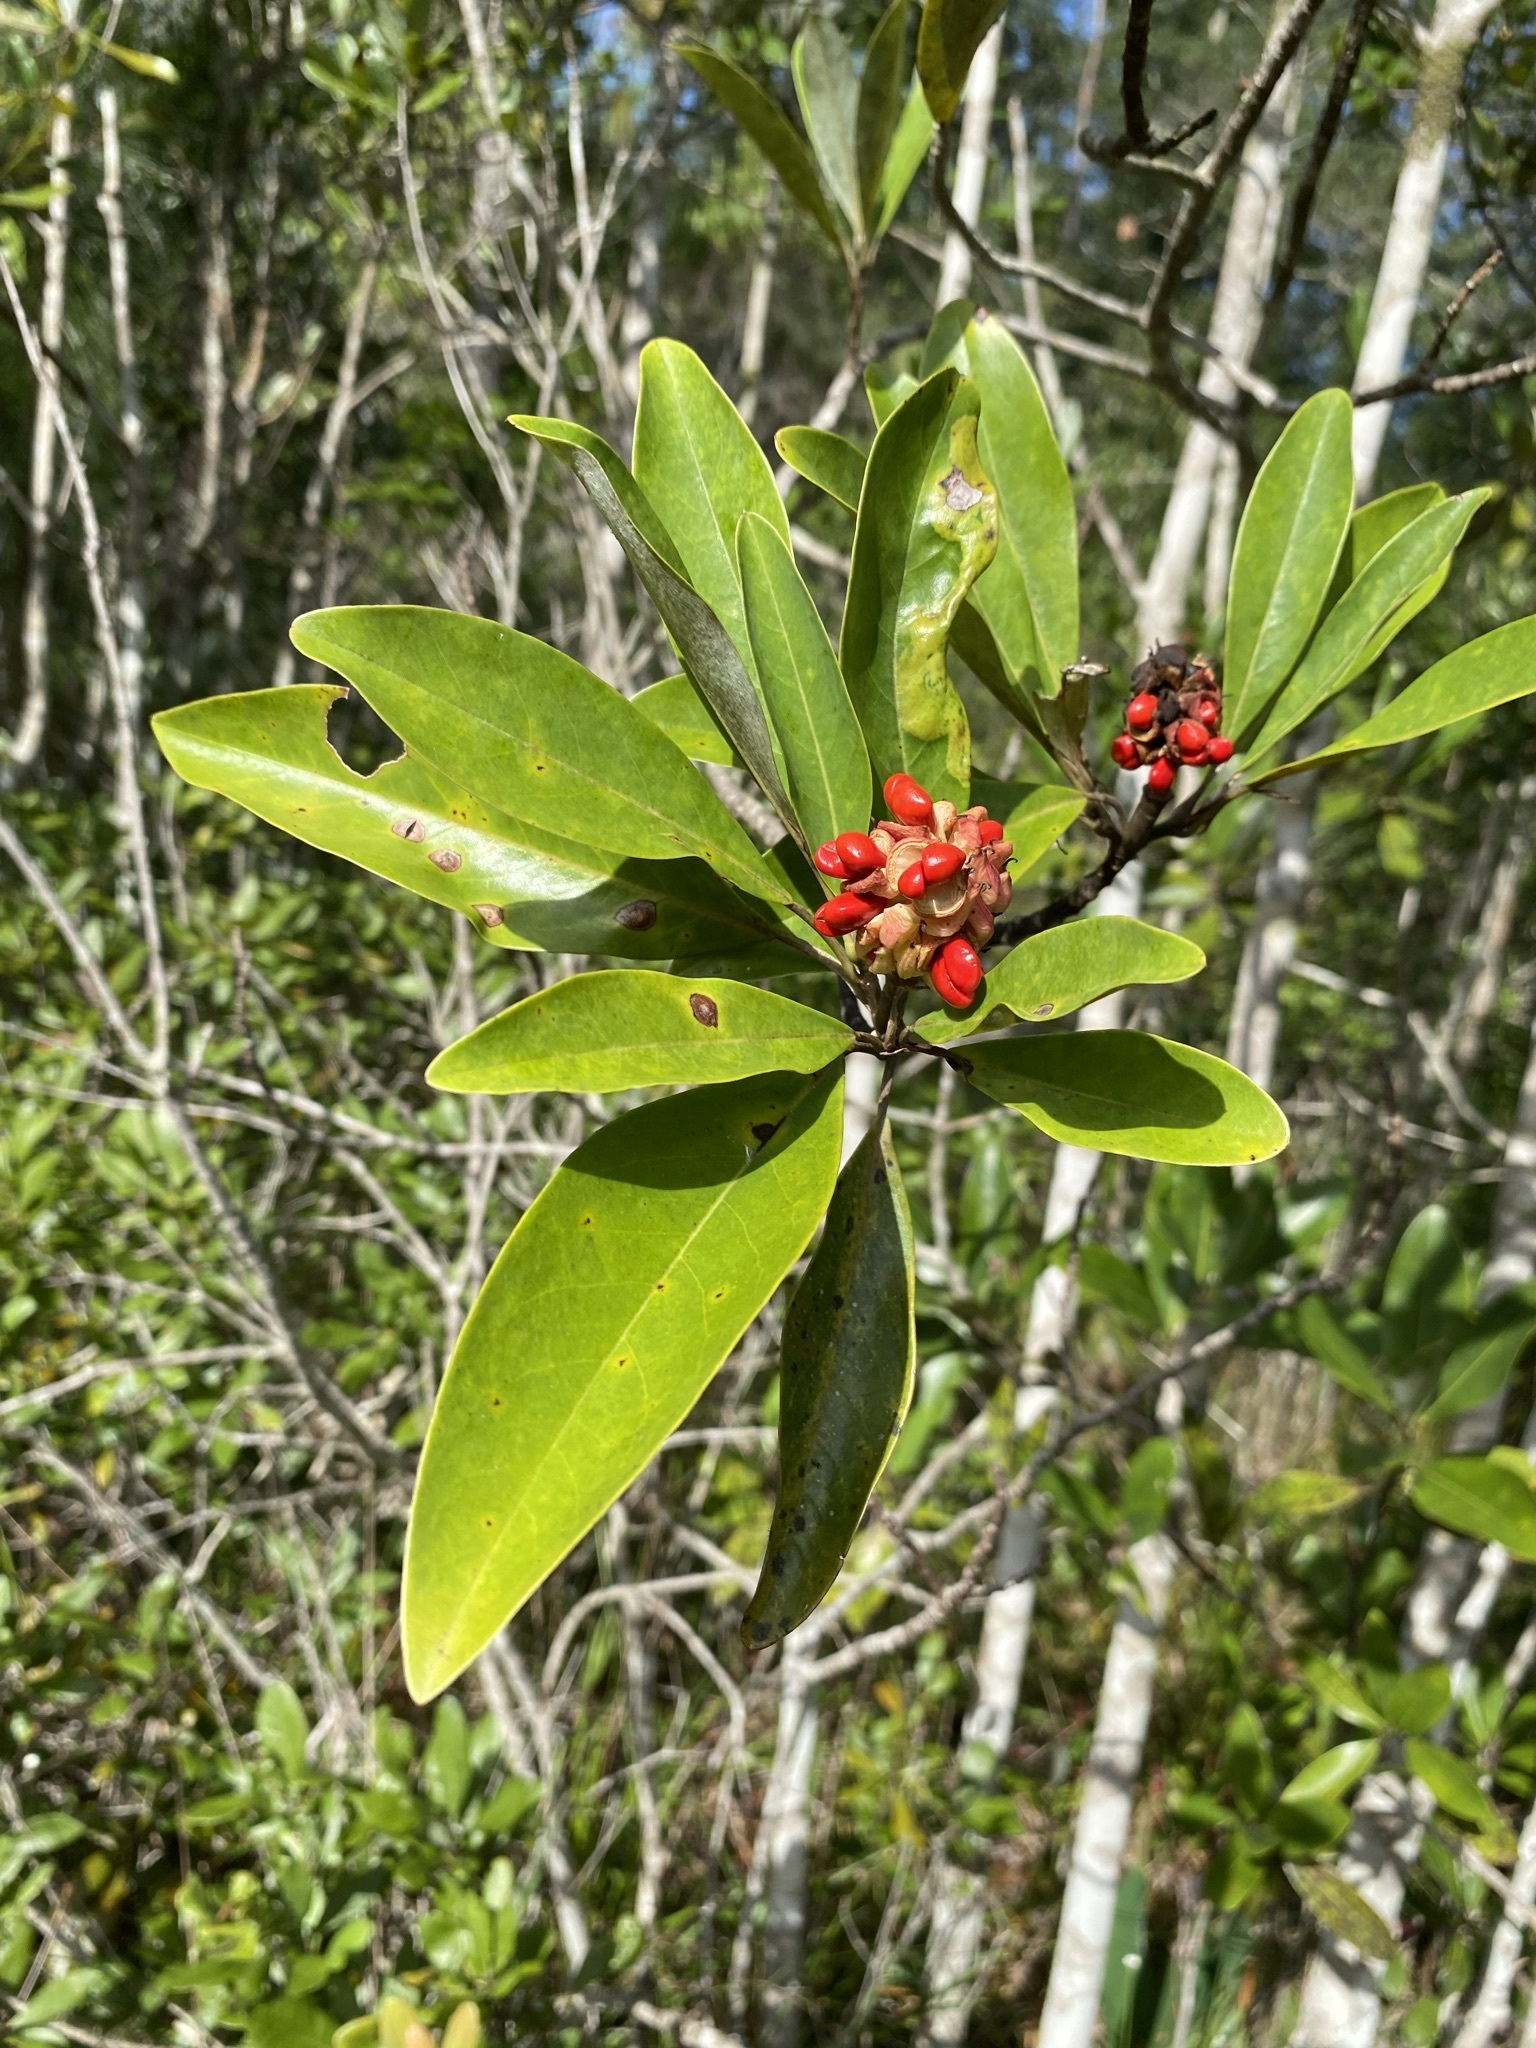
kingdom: Plantae
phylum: Tracheophyta
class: Magnoliopsida
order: Magnoliales
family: Magnoliaceae
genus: Magnolia
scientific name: Magnolia virginiana
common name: Swamp bay
